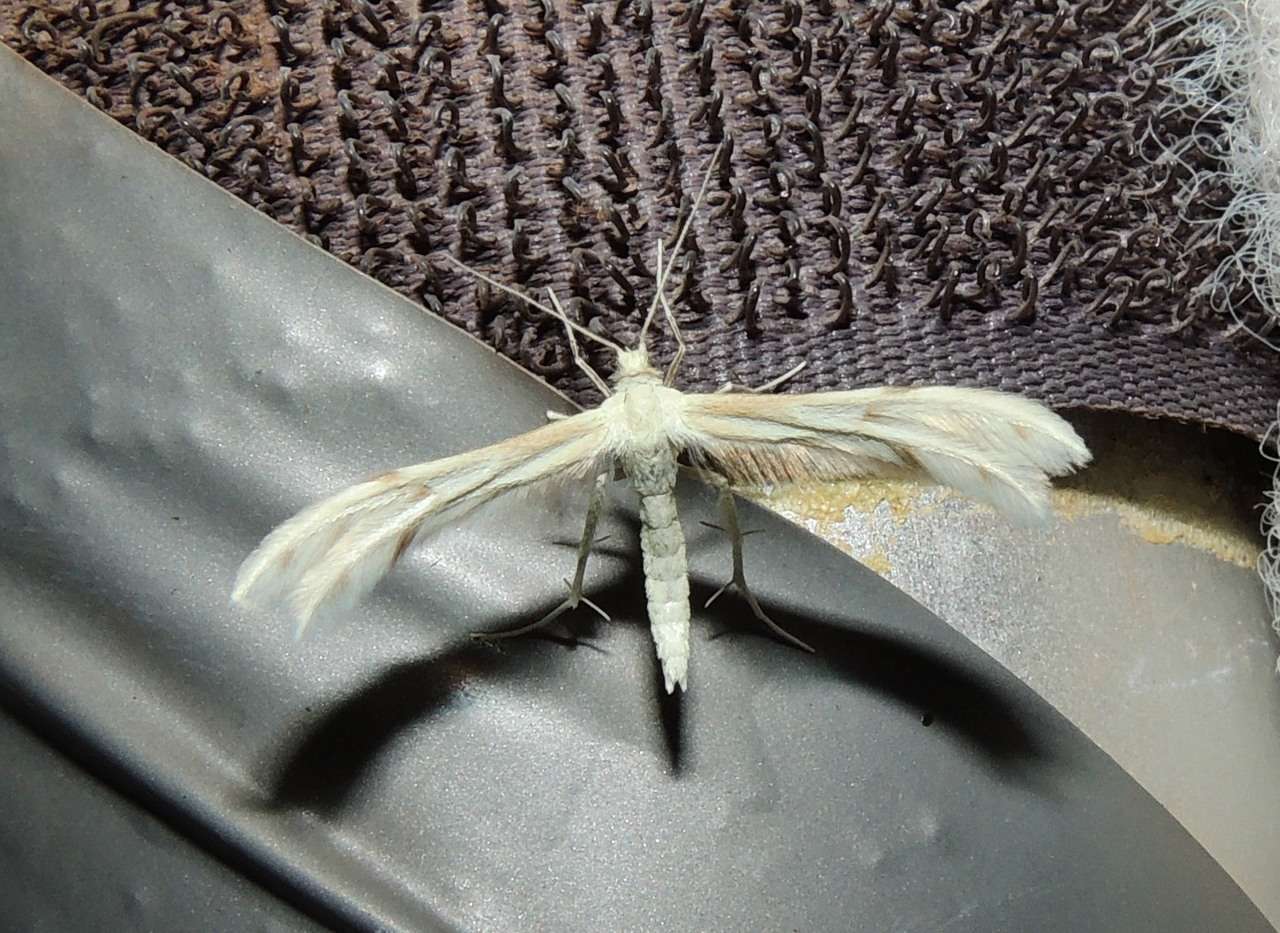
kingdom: Animalia
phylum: Arthropoda
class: Insecta
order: Lepidoptera
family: Pterophoridae
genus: Wheeleria
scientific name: Wheeleria spilodactylus
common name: Horehound plume
